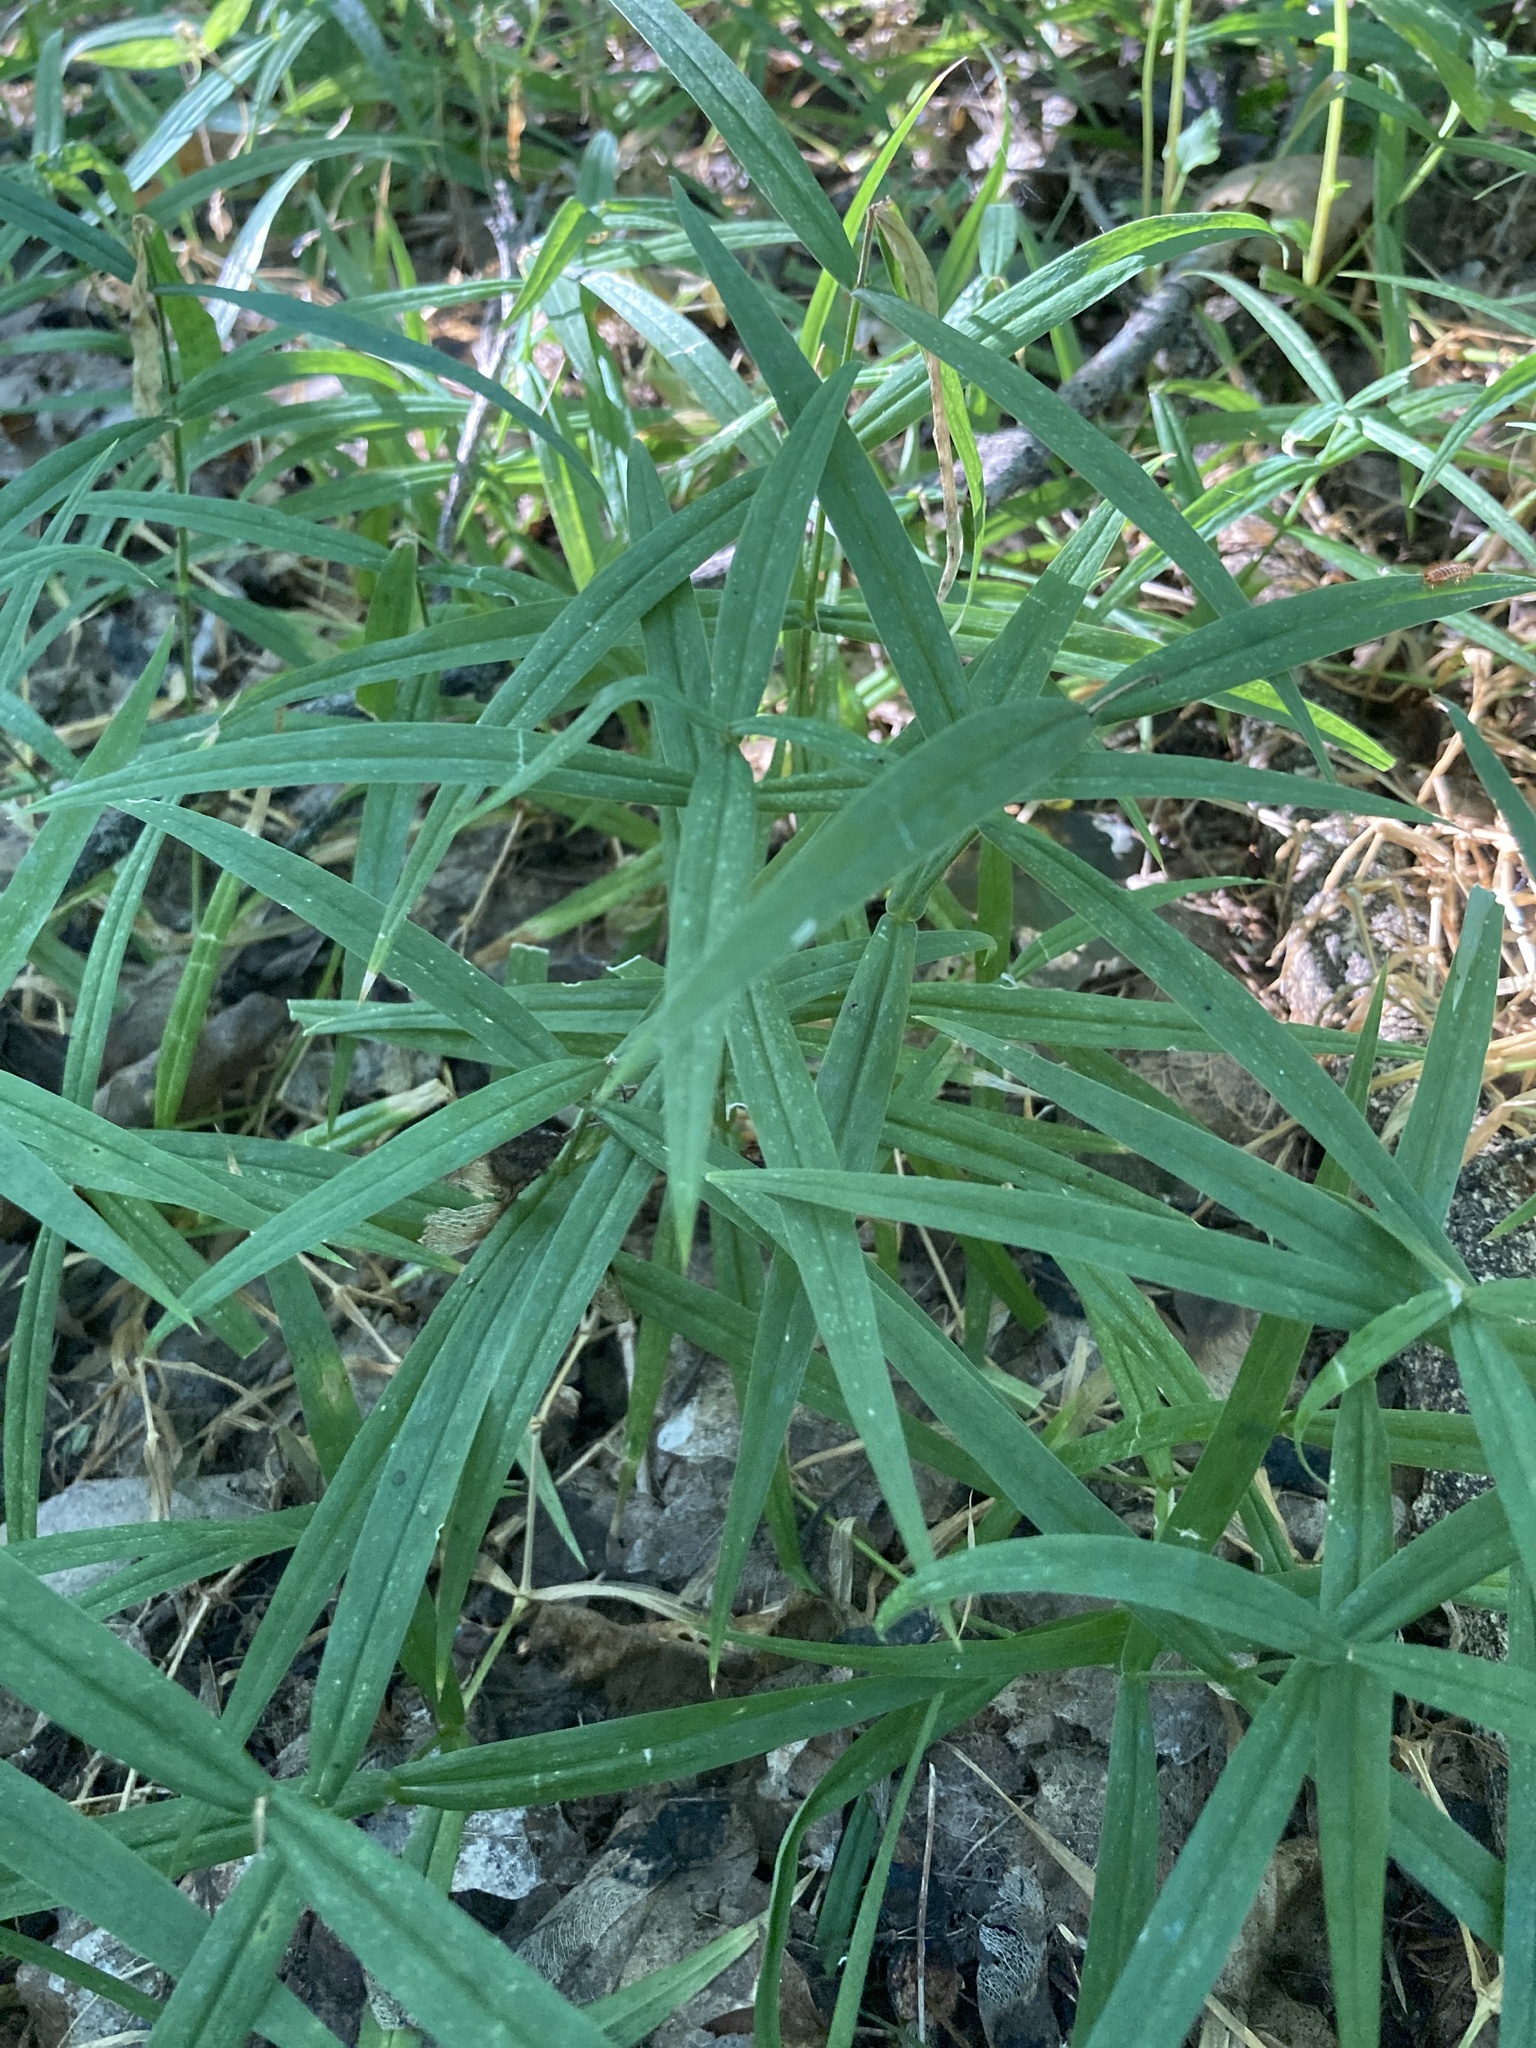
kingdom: Plantae
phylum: Tracheophyta
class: Magnoliopsida
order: Caryophyllales
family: Caryophyllaceae
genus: Rabelera
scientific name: Rabelera holostea
